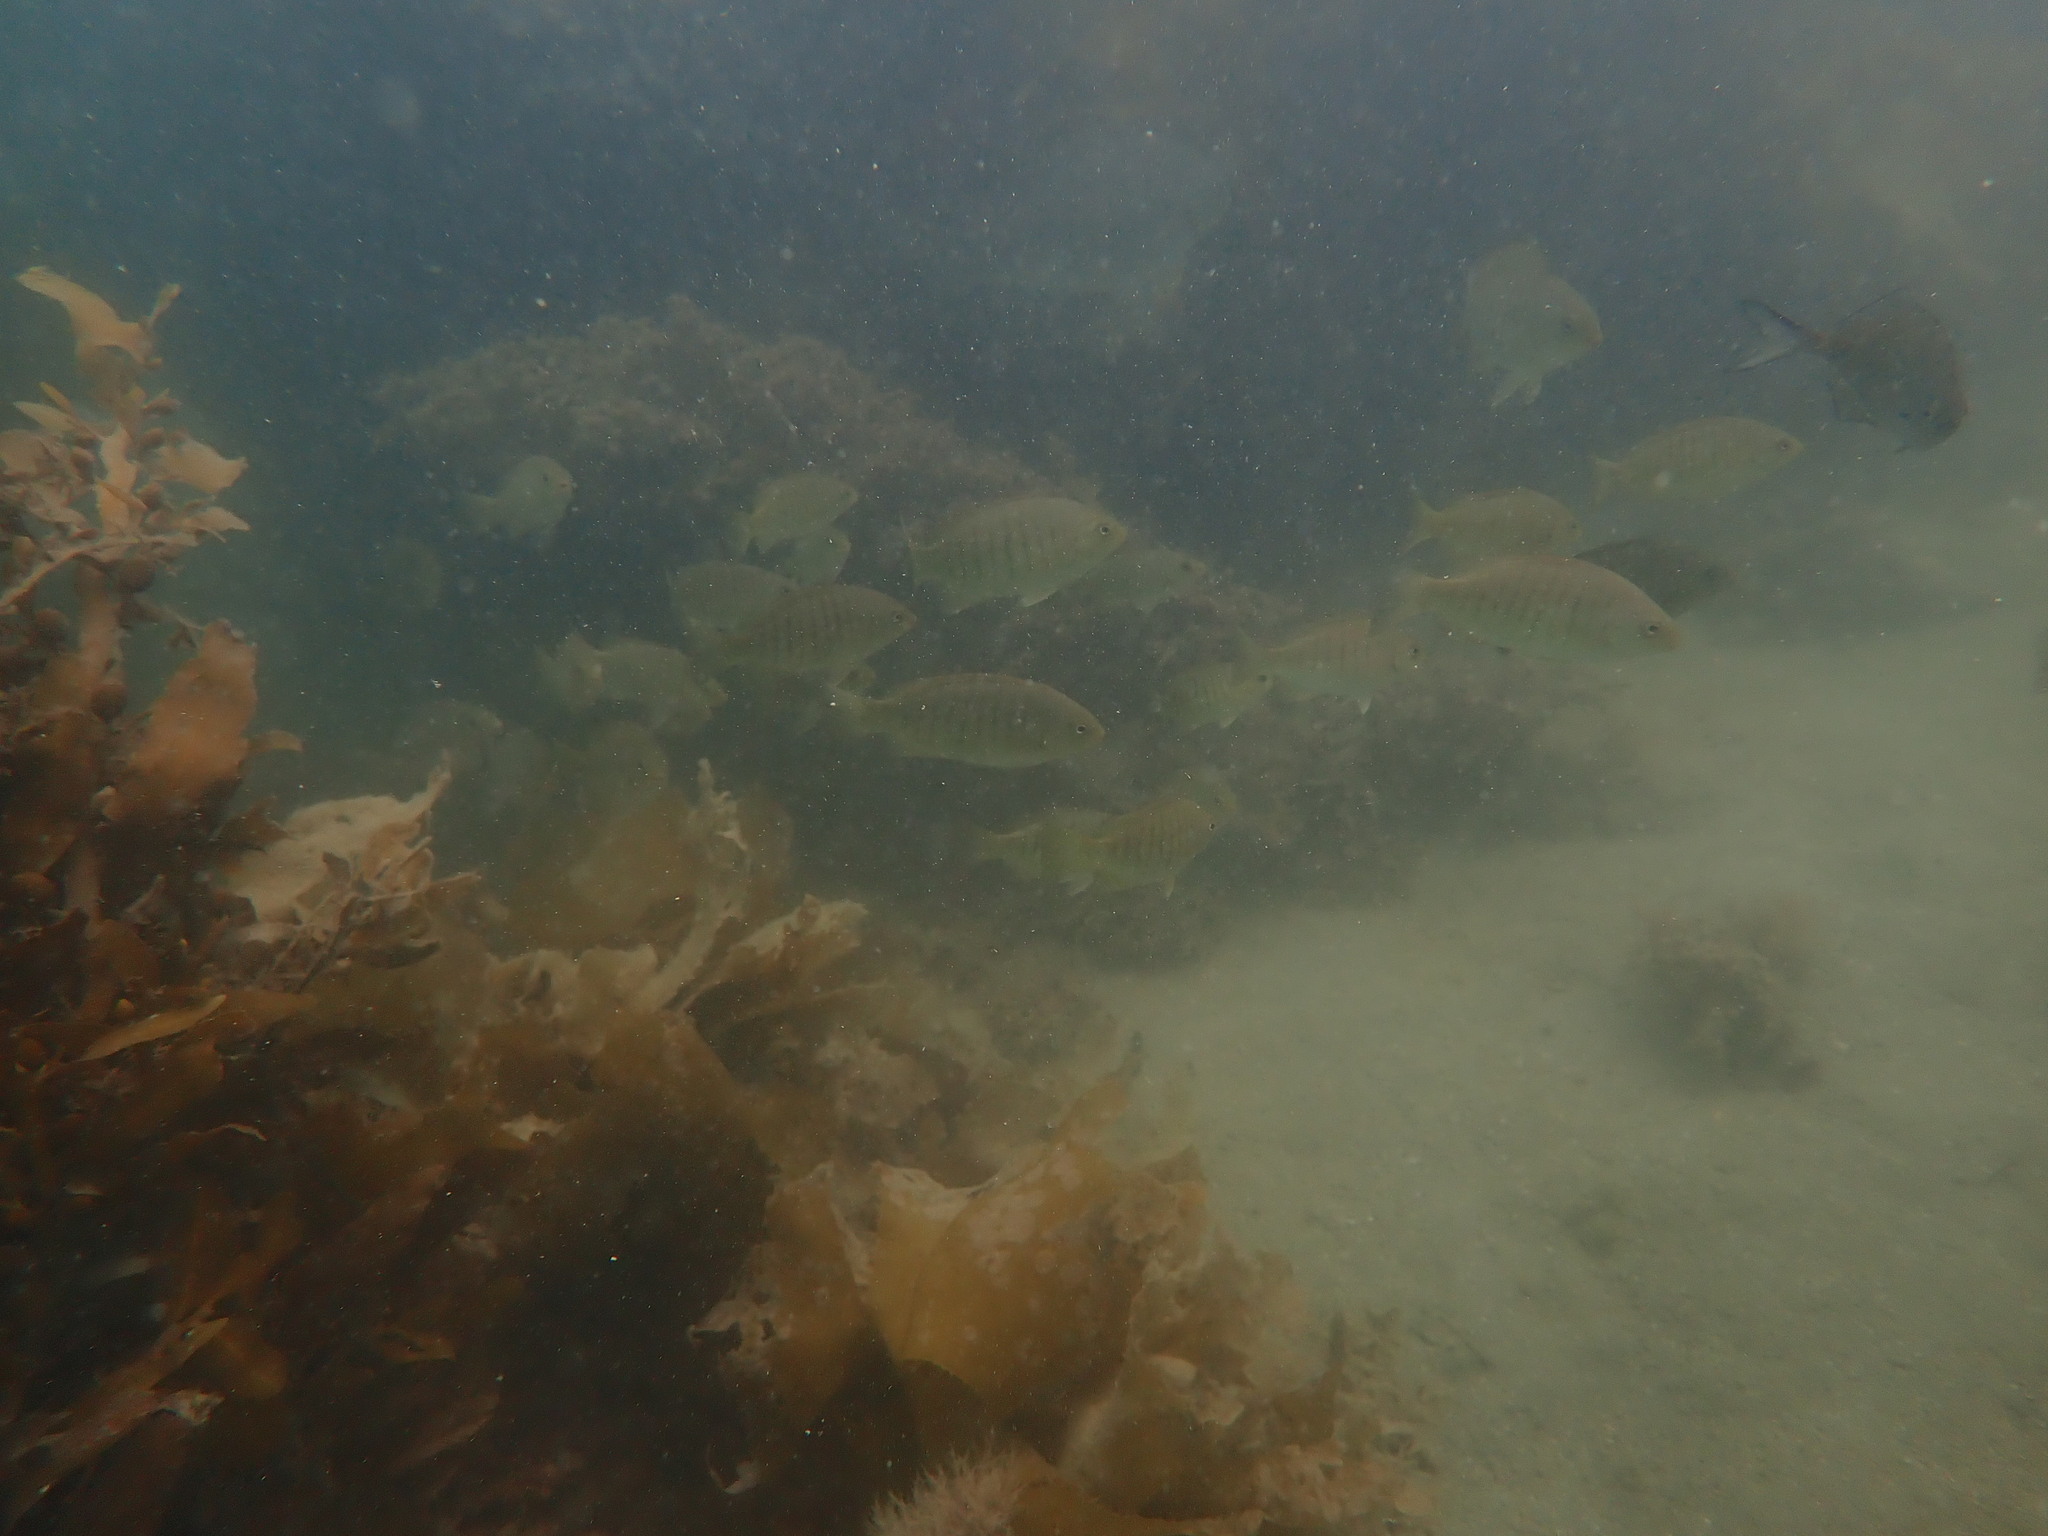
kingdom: Animalia
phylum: Chordata
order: Perciformes
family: Kyphosidae
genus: Girella
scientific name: Girella tricuspidata
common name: Parore
